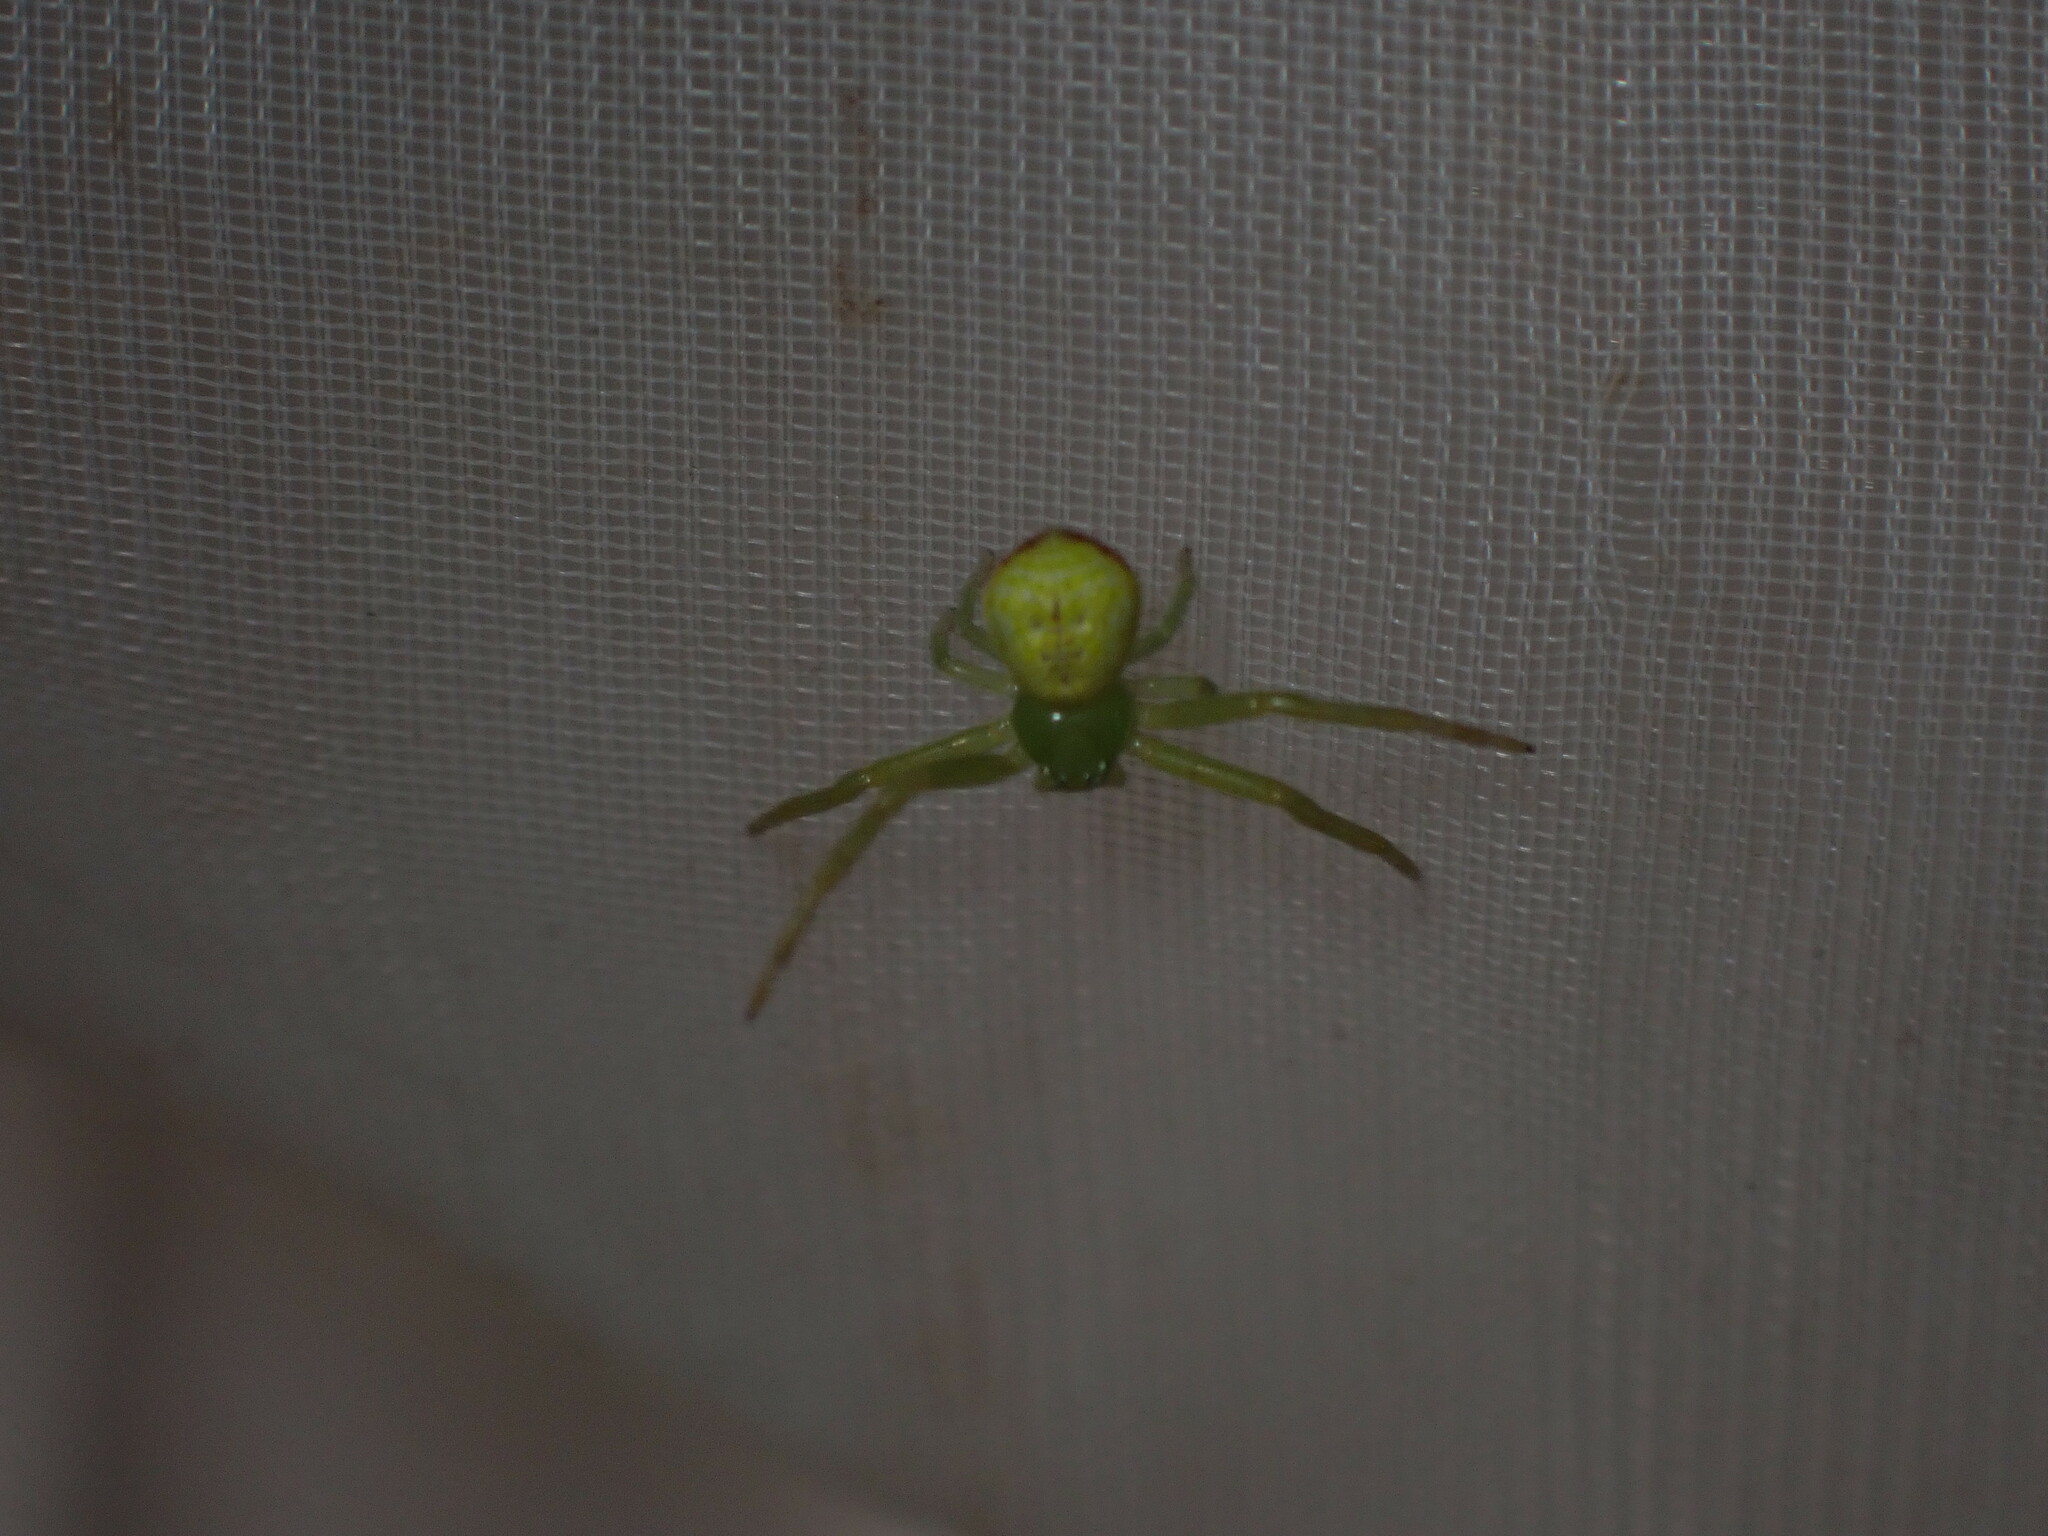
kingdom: Animalia
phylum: Arthropoda
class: Arachnida
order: Araneae
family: Thomisidae
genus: Ebrechtella
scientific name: Ebrechtella tricuspidata
